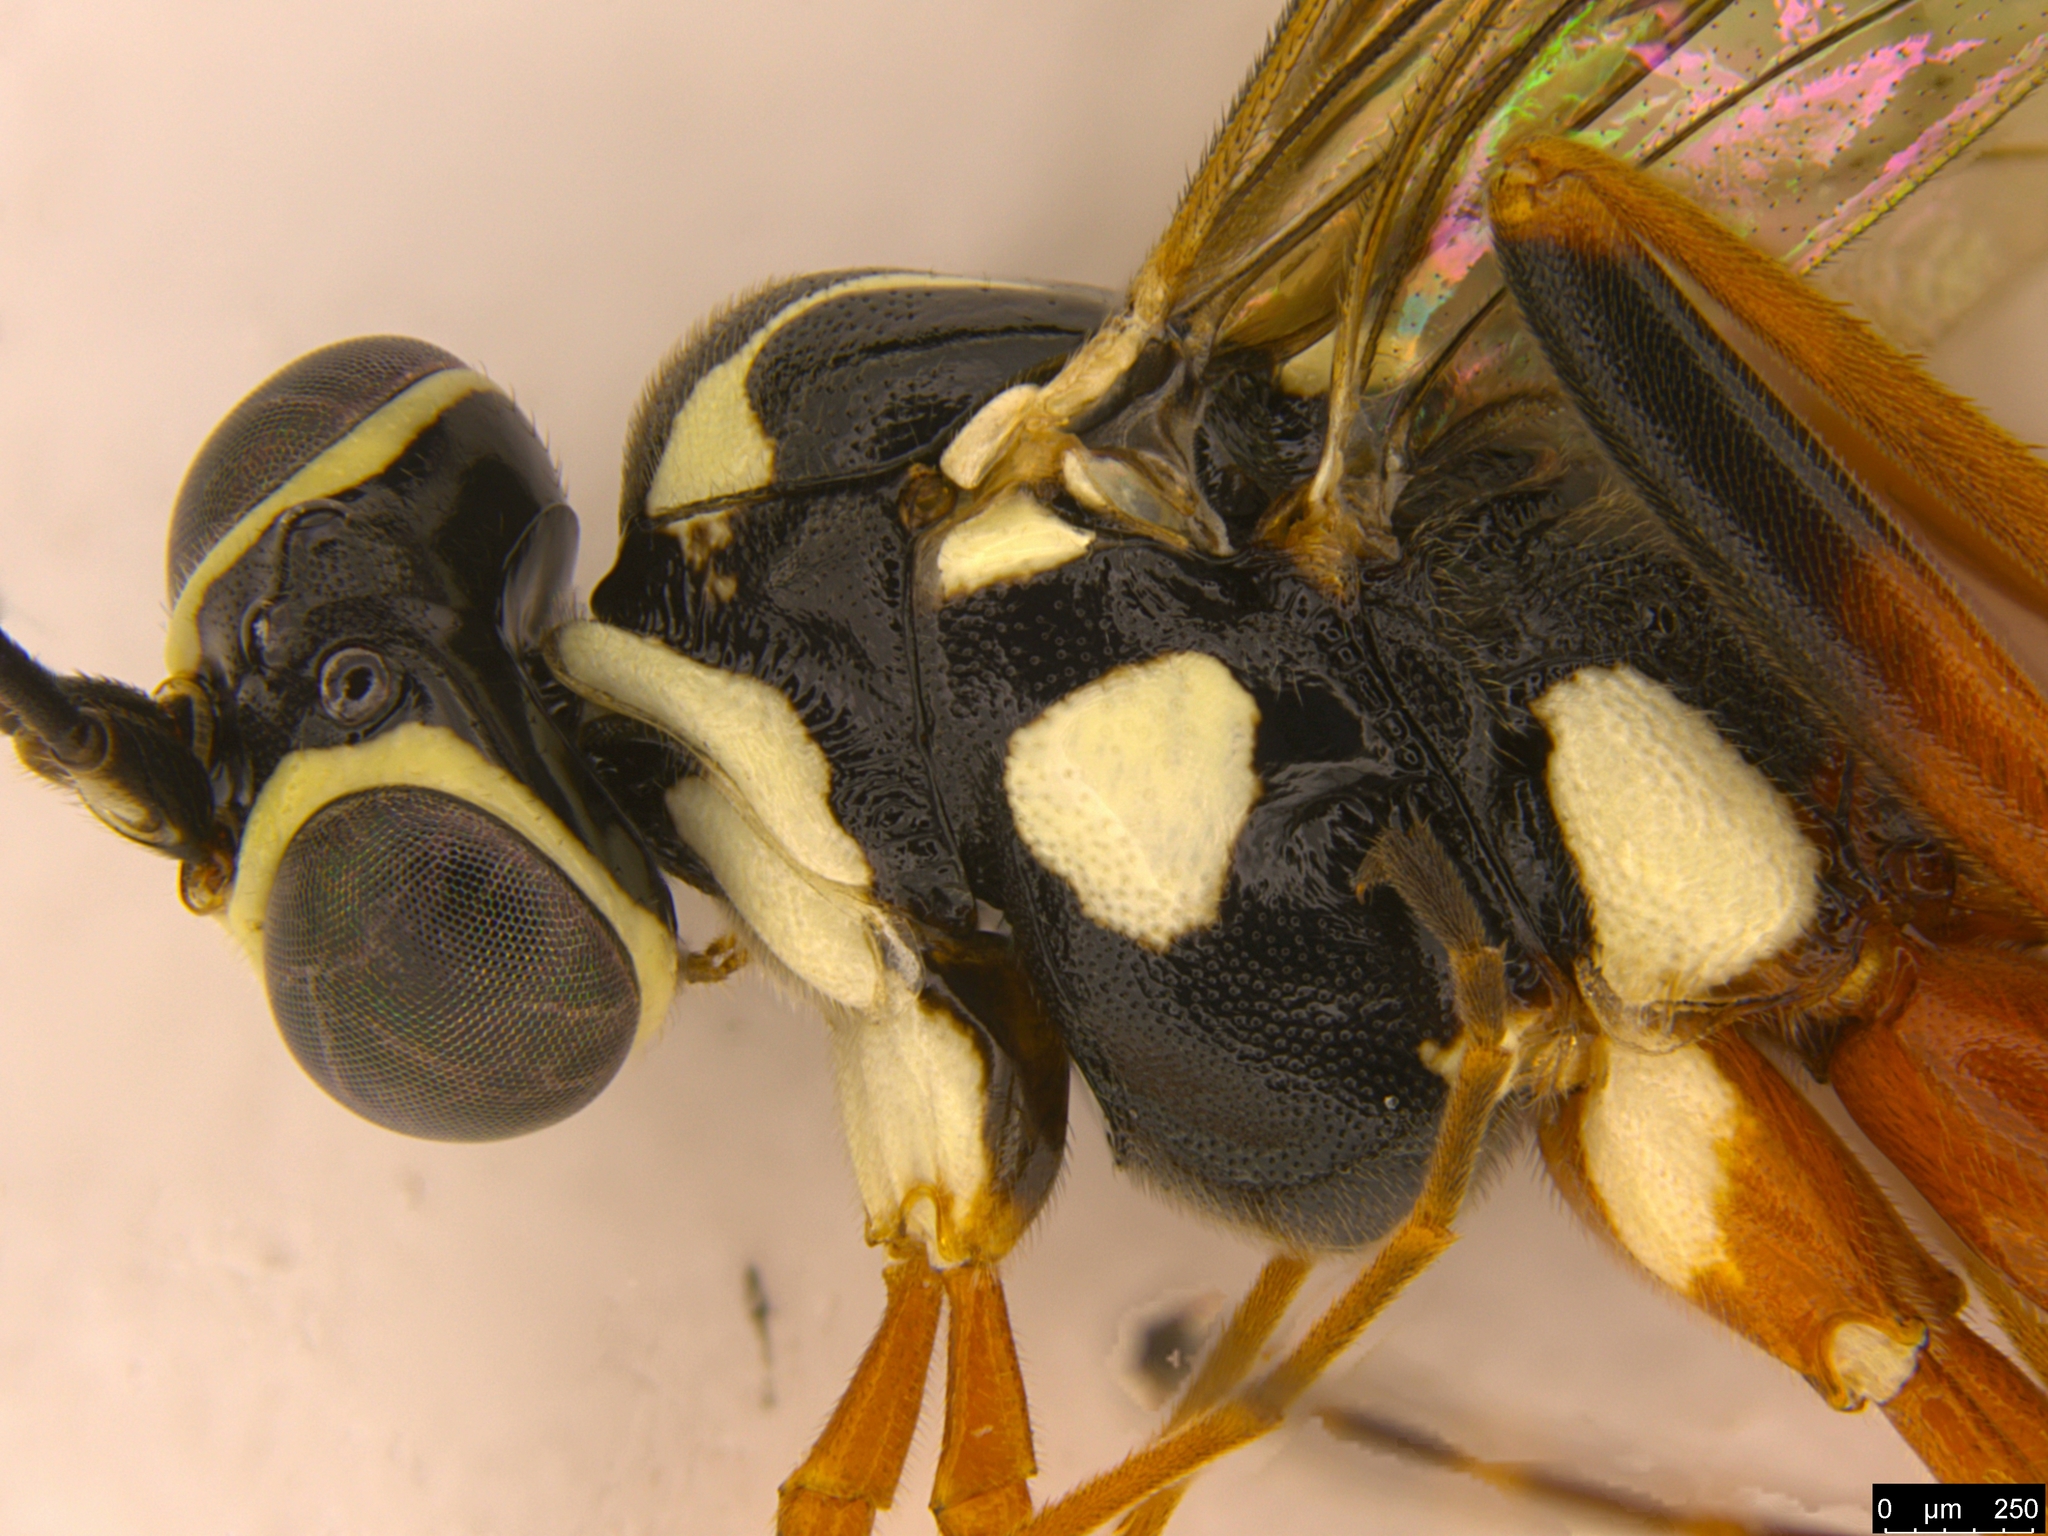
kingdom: Animalia
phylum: Arthropoda
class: Insecta
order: Hymenoptera
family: Ichneumonidae
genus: Lissonota
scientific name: Lissonota macqueeni
